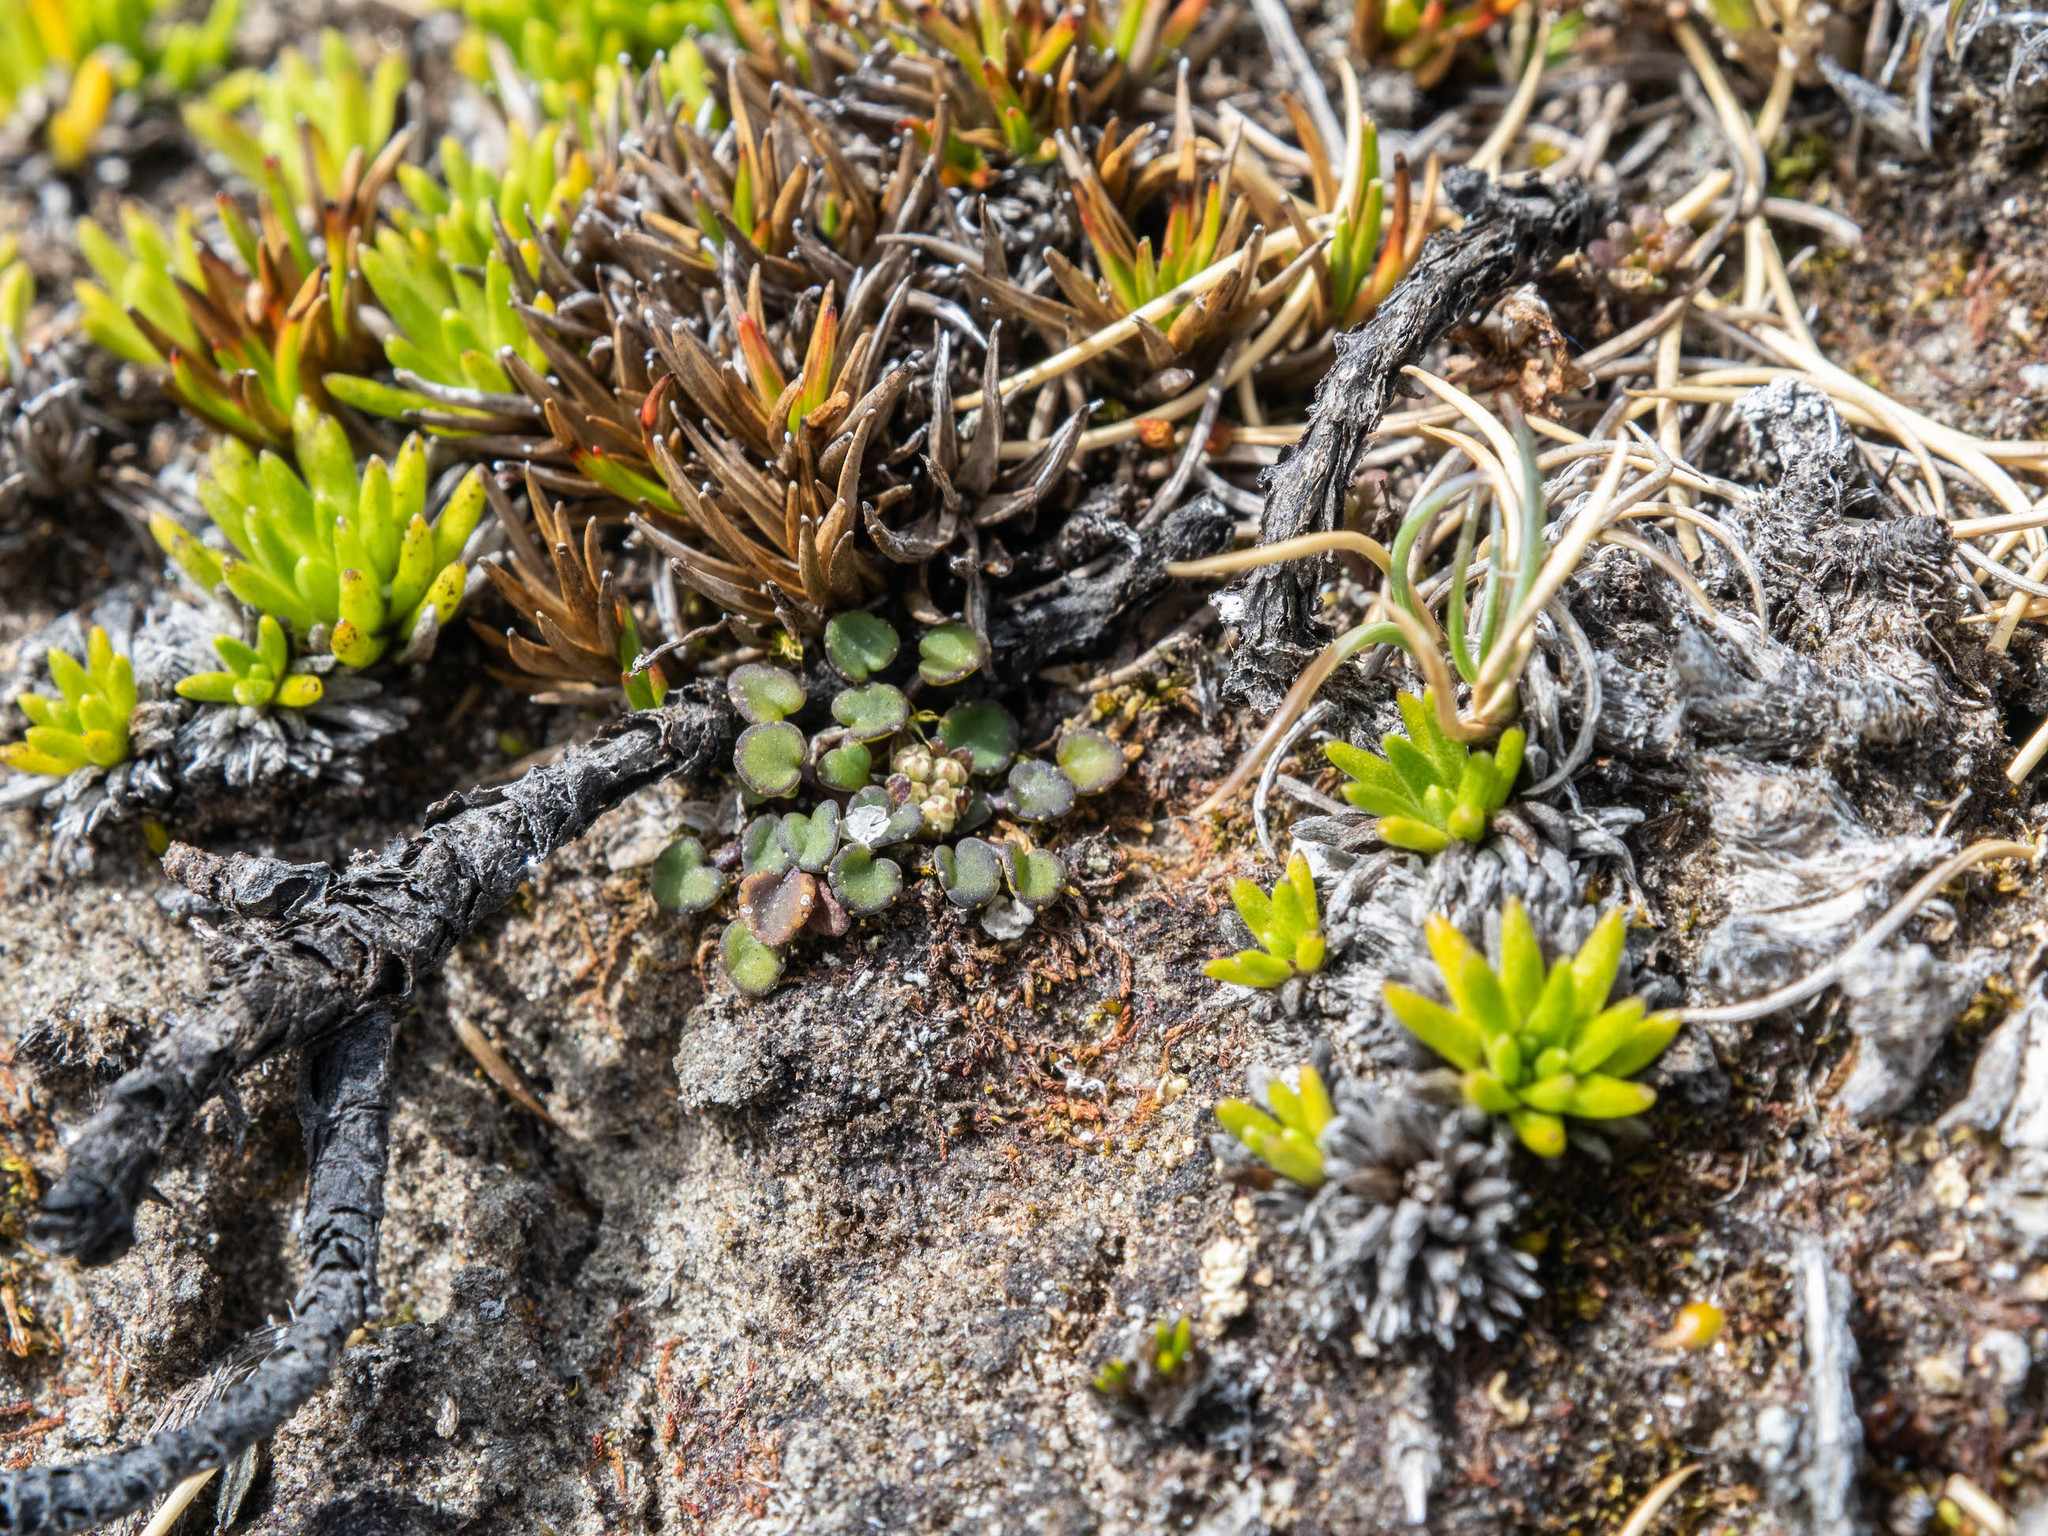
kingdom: Plantae
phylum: Tracheophyta
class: Magnoliopsida
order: Apiales
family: Apiaceae
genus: Azorella
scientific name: Azorella exigua
